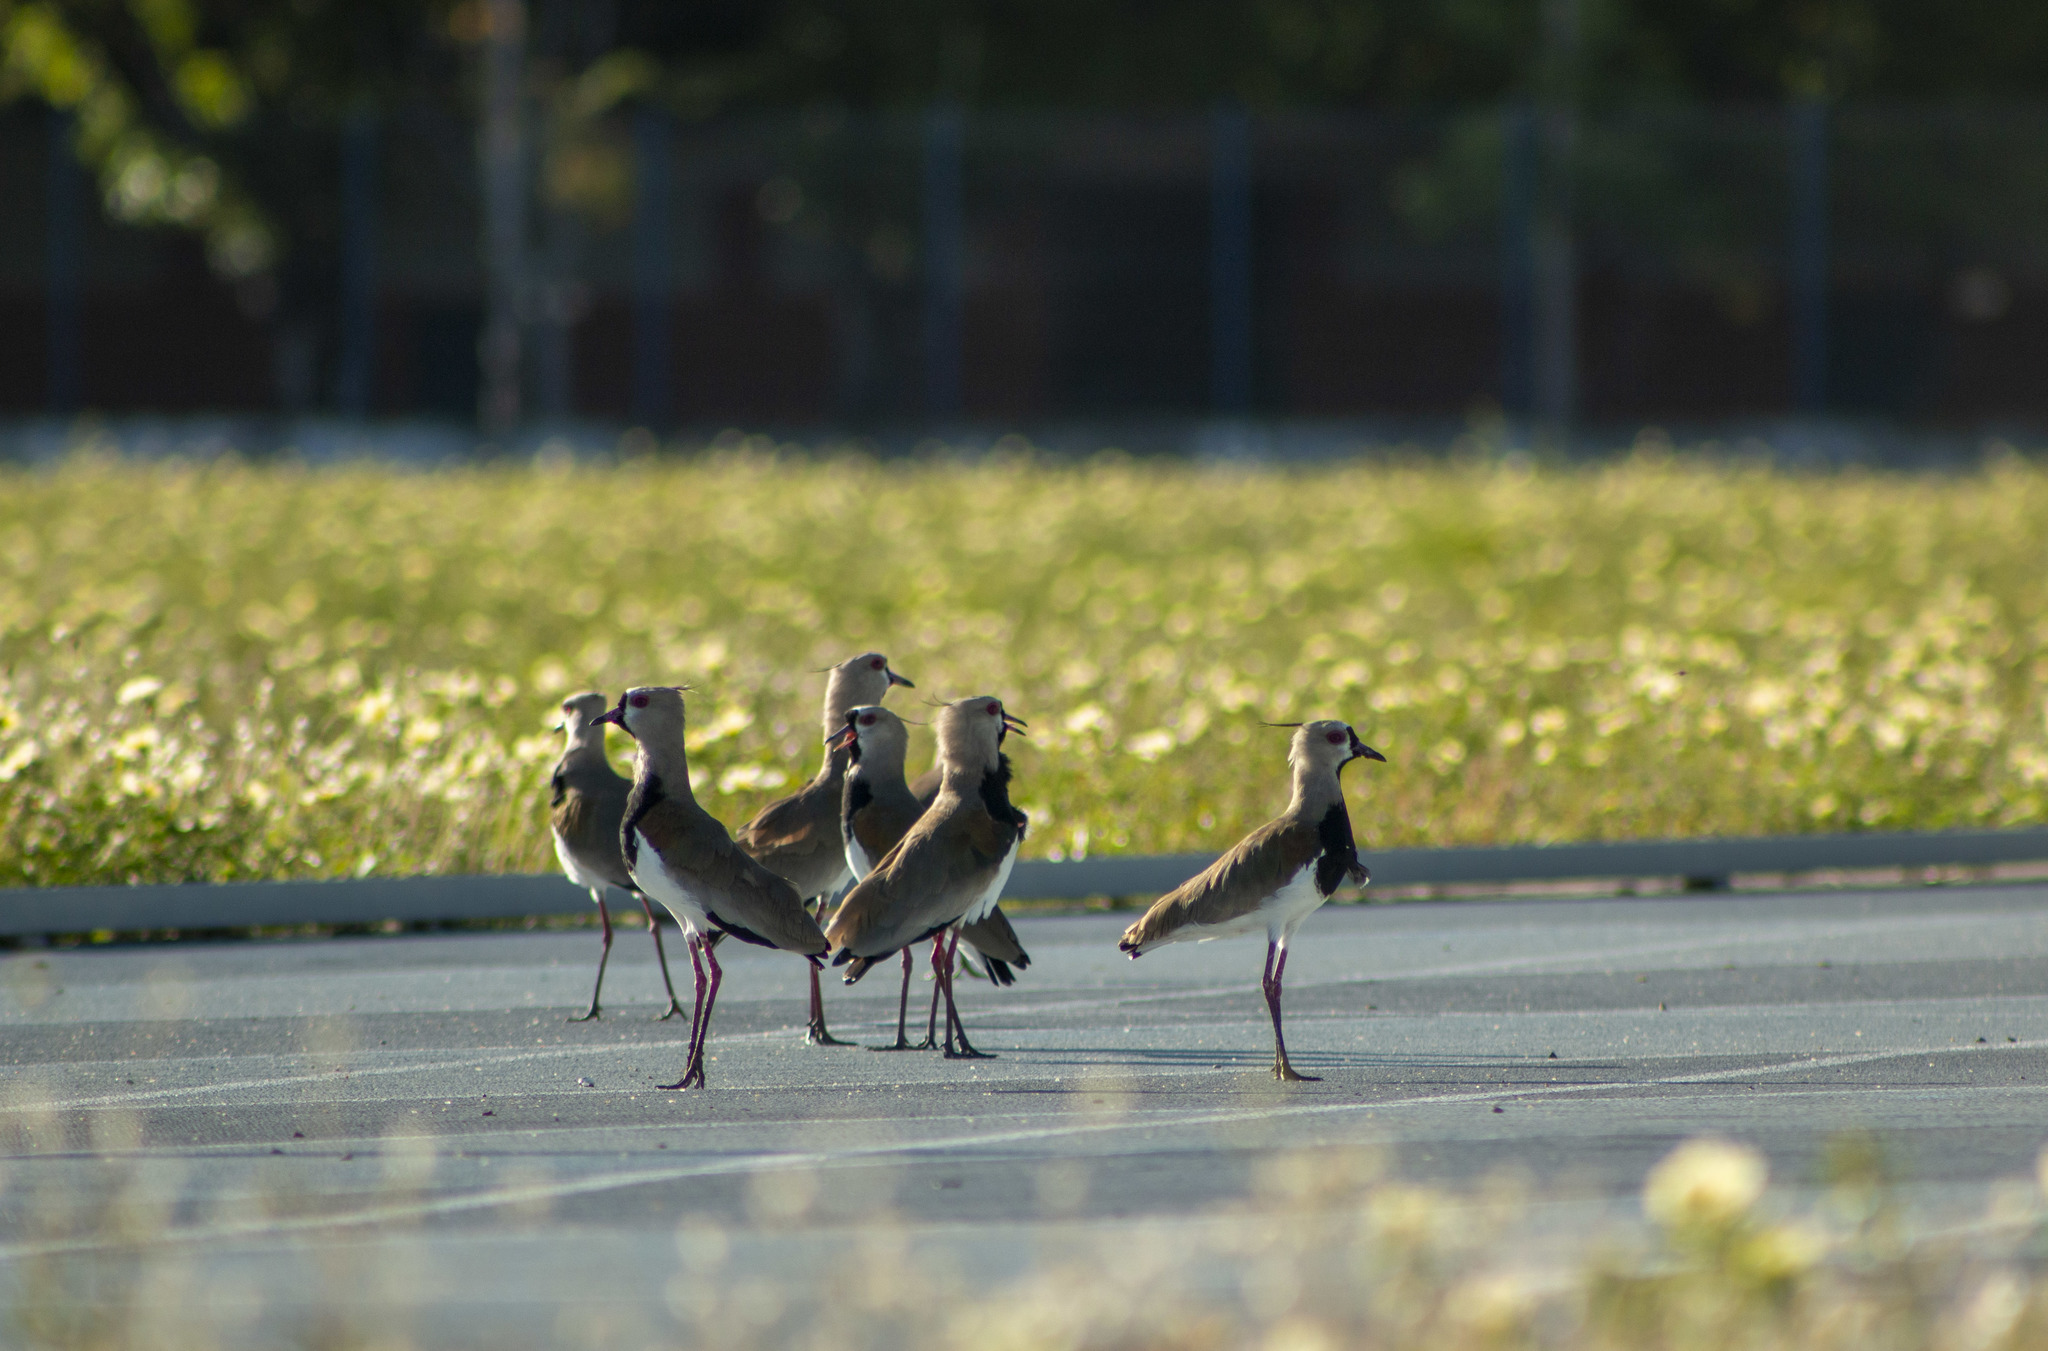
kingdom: Animalia
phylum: Chordata
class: Aves
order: Charadriiformes
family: Charadriidae
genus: Vanellus
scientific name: Vanellus chilensis
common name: Southern lapwing
